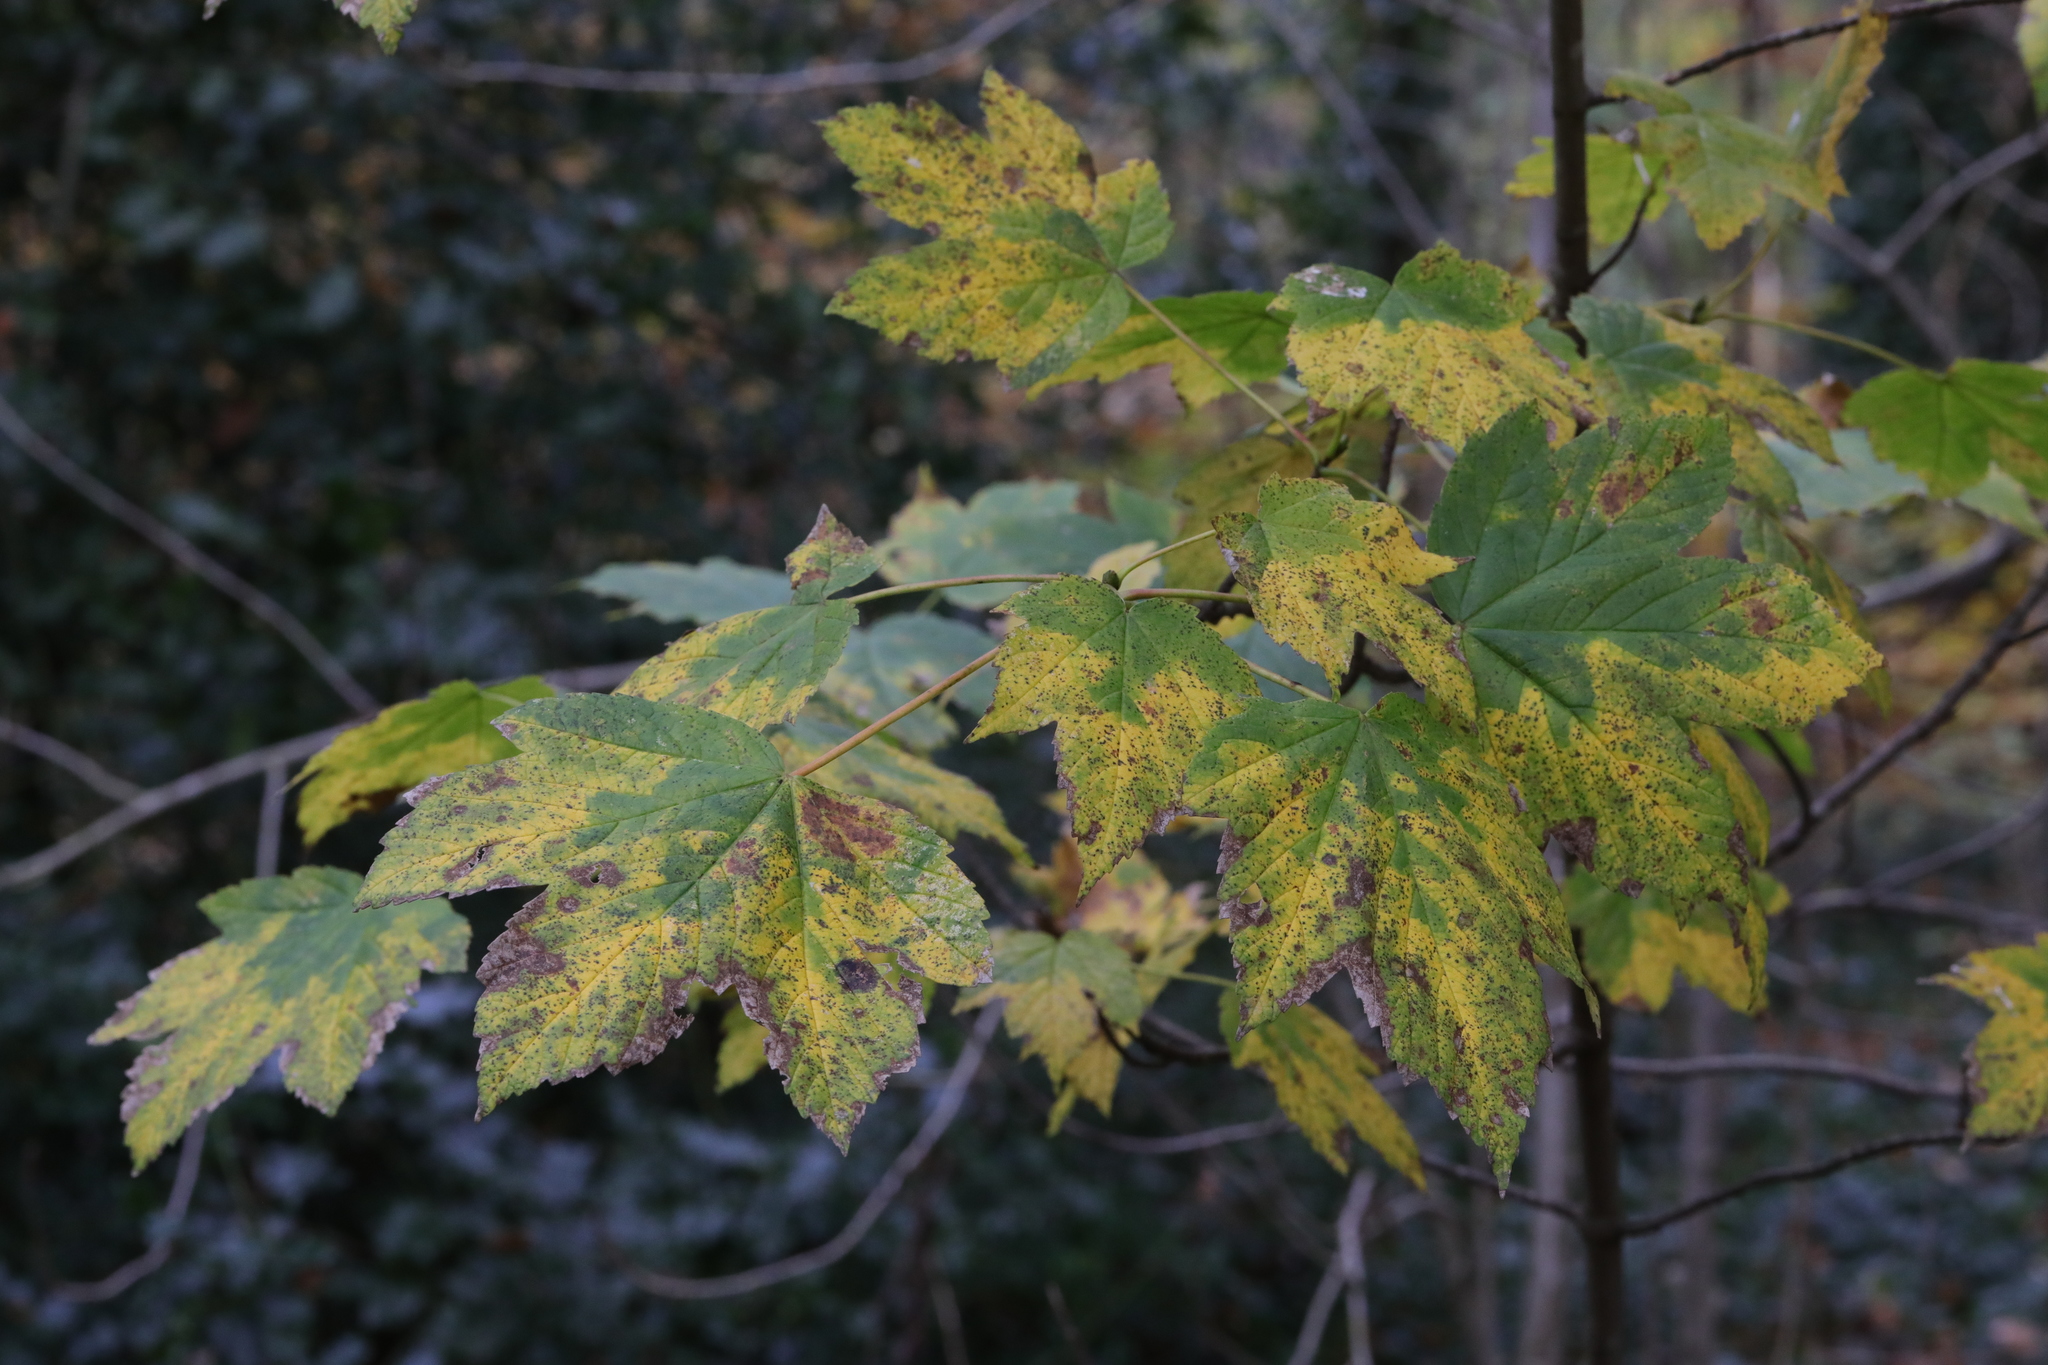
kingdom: Plantae
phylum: Tracheophyta
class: Magnoliopsida
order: Sapindales
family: Sapindaceae
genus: Acer
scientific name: Acer pseudoplatanus
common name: Sycamore
